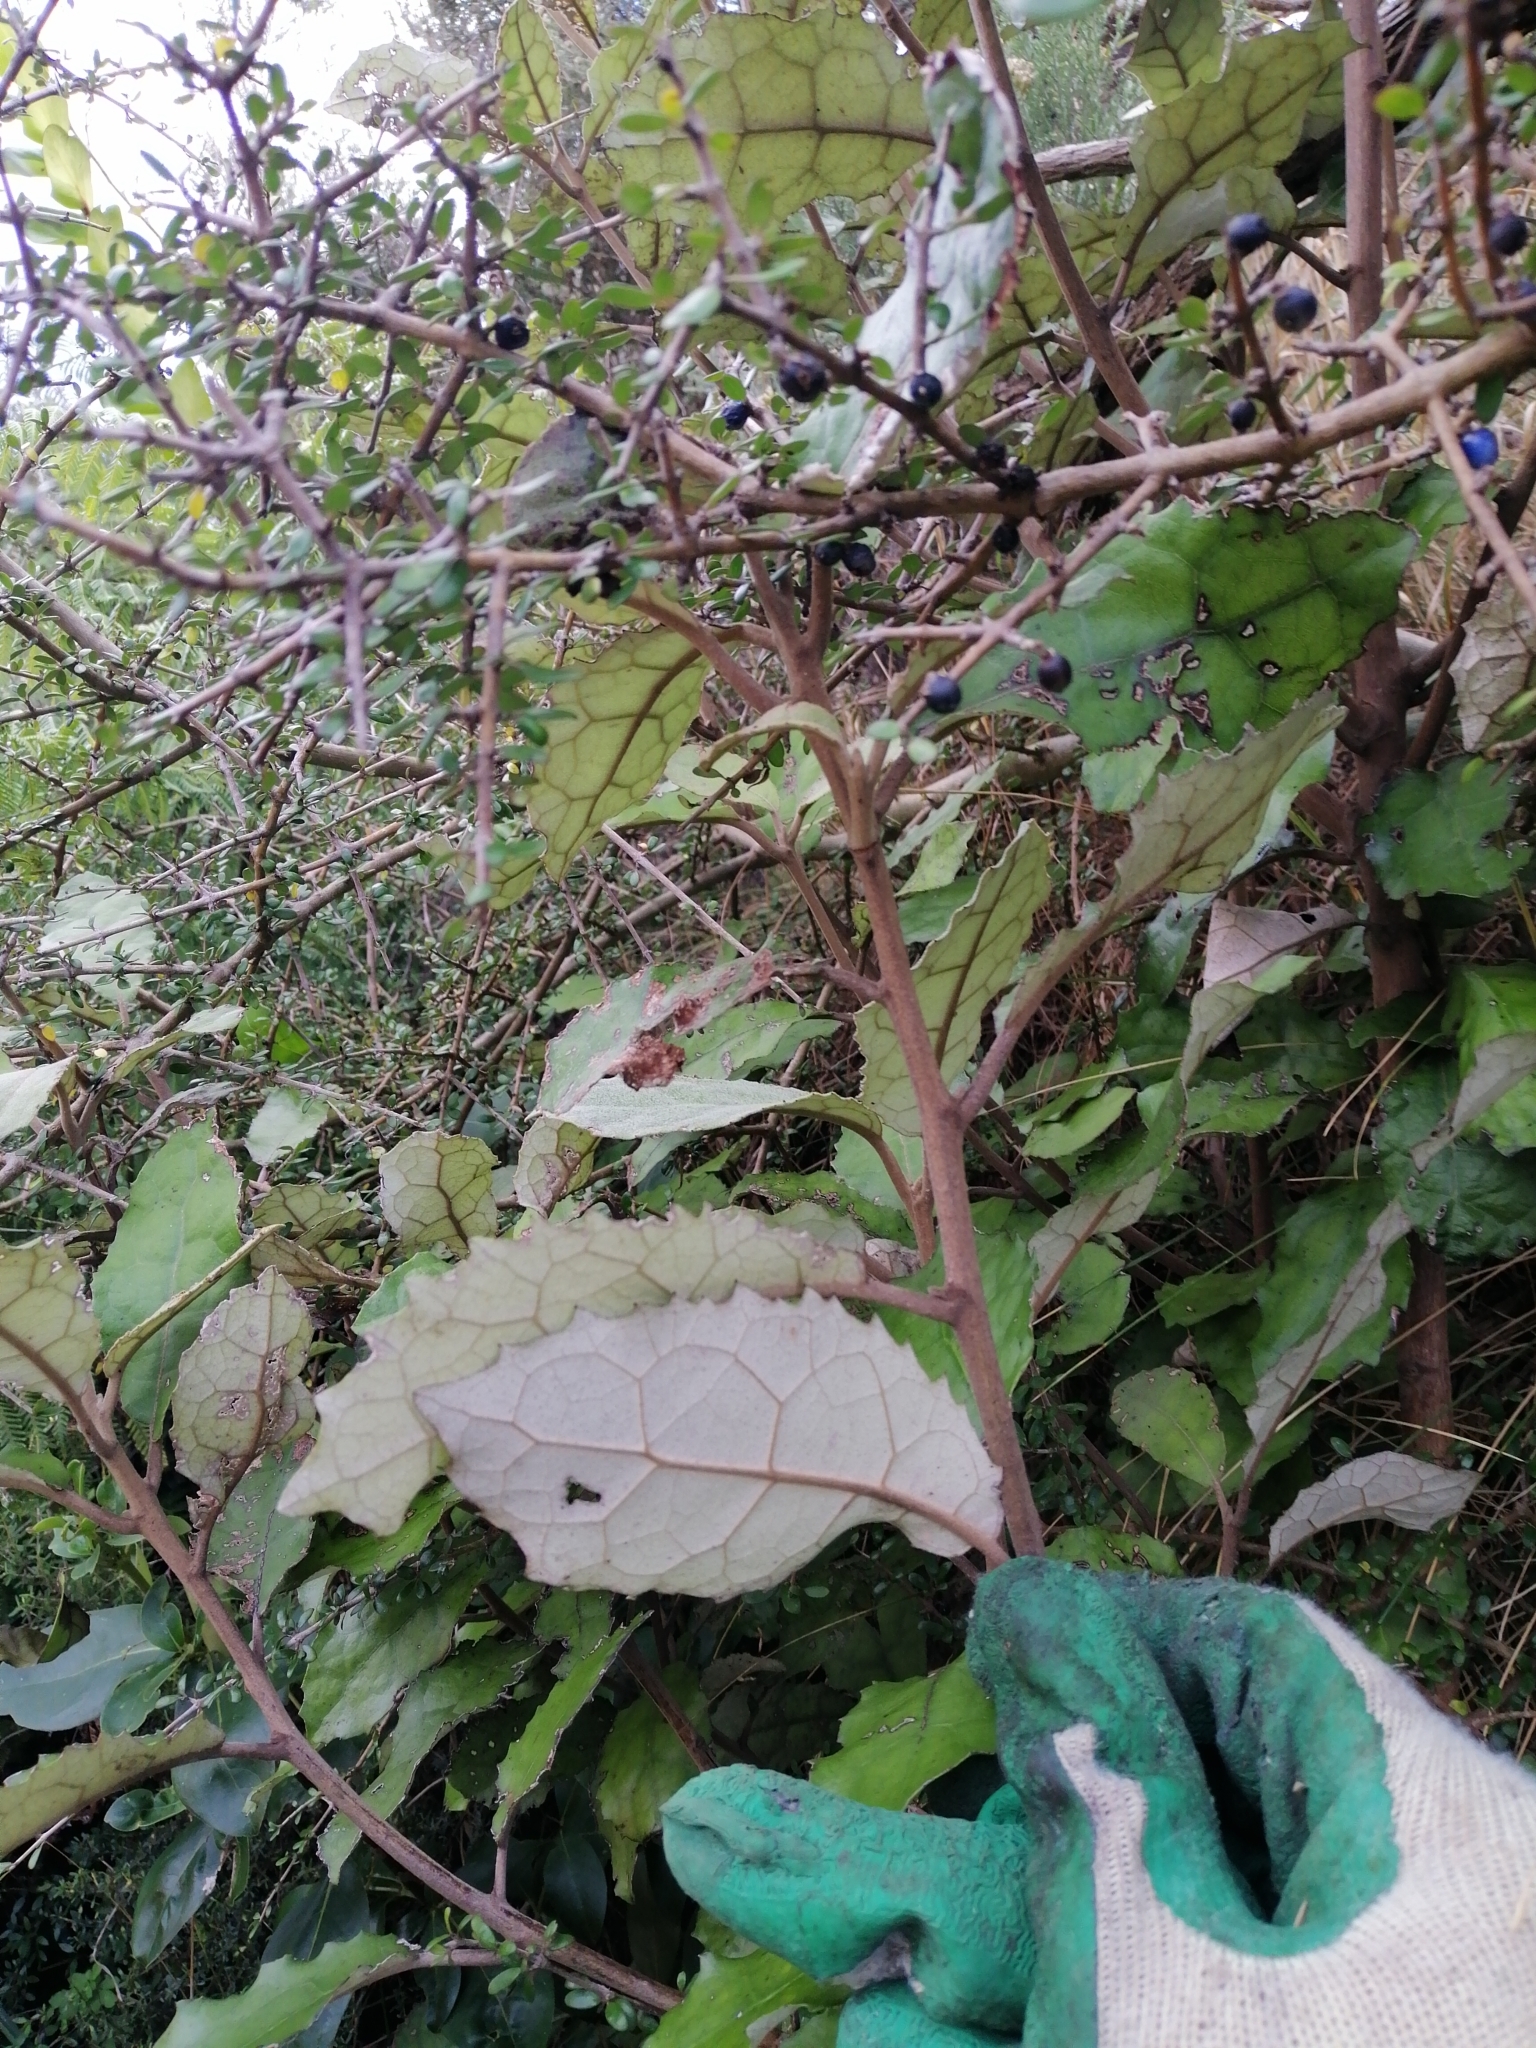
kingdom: Plantae
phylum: Tracheophyta
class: Magnoliopsida
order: Asterales
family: Asteraceae
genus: Olearia
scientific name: Olearia rani
